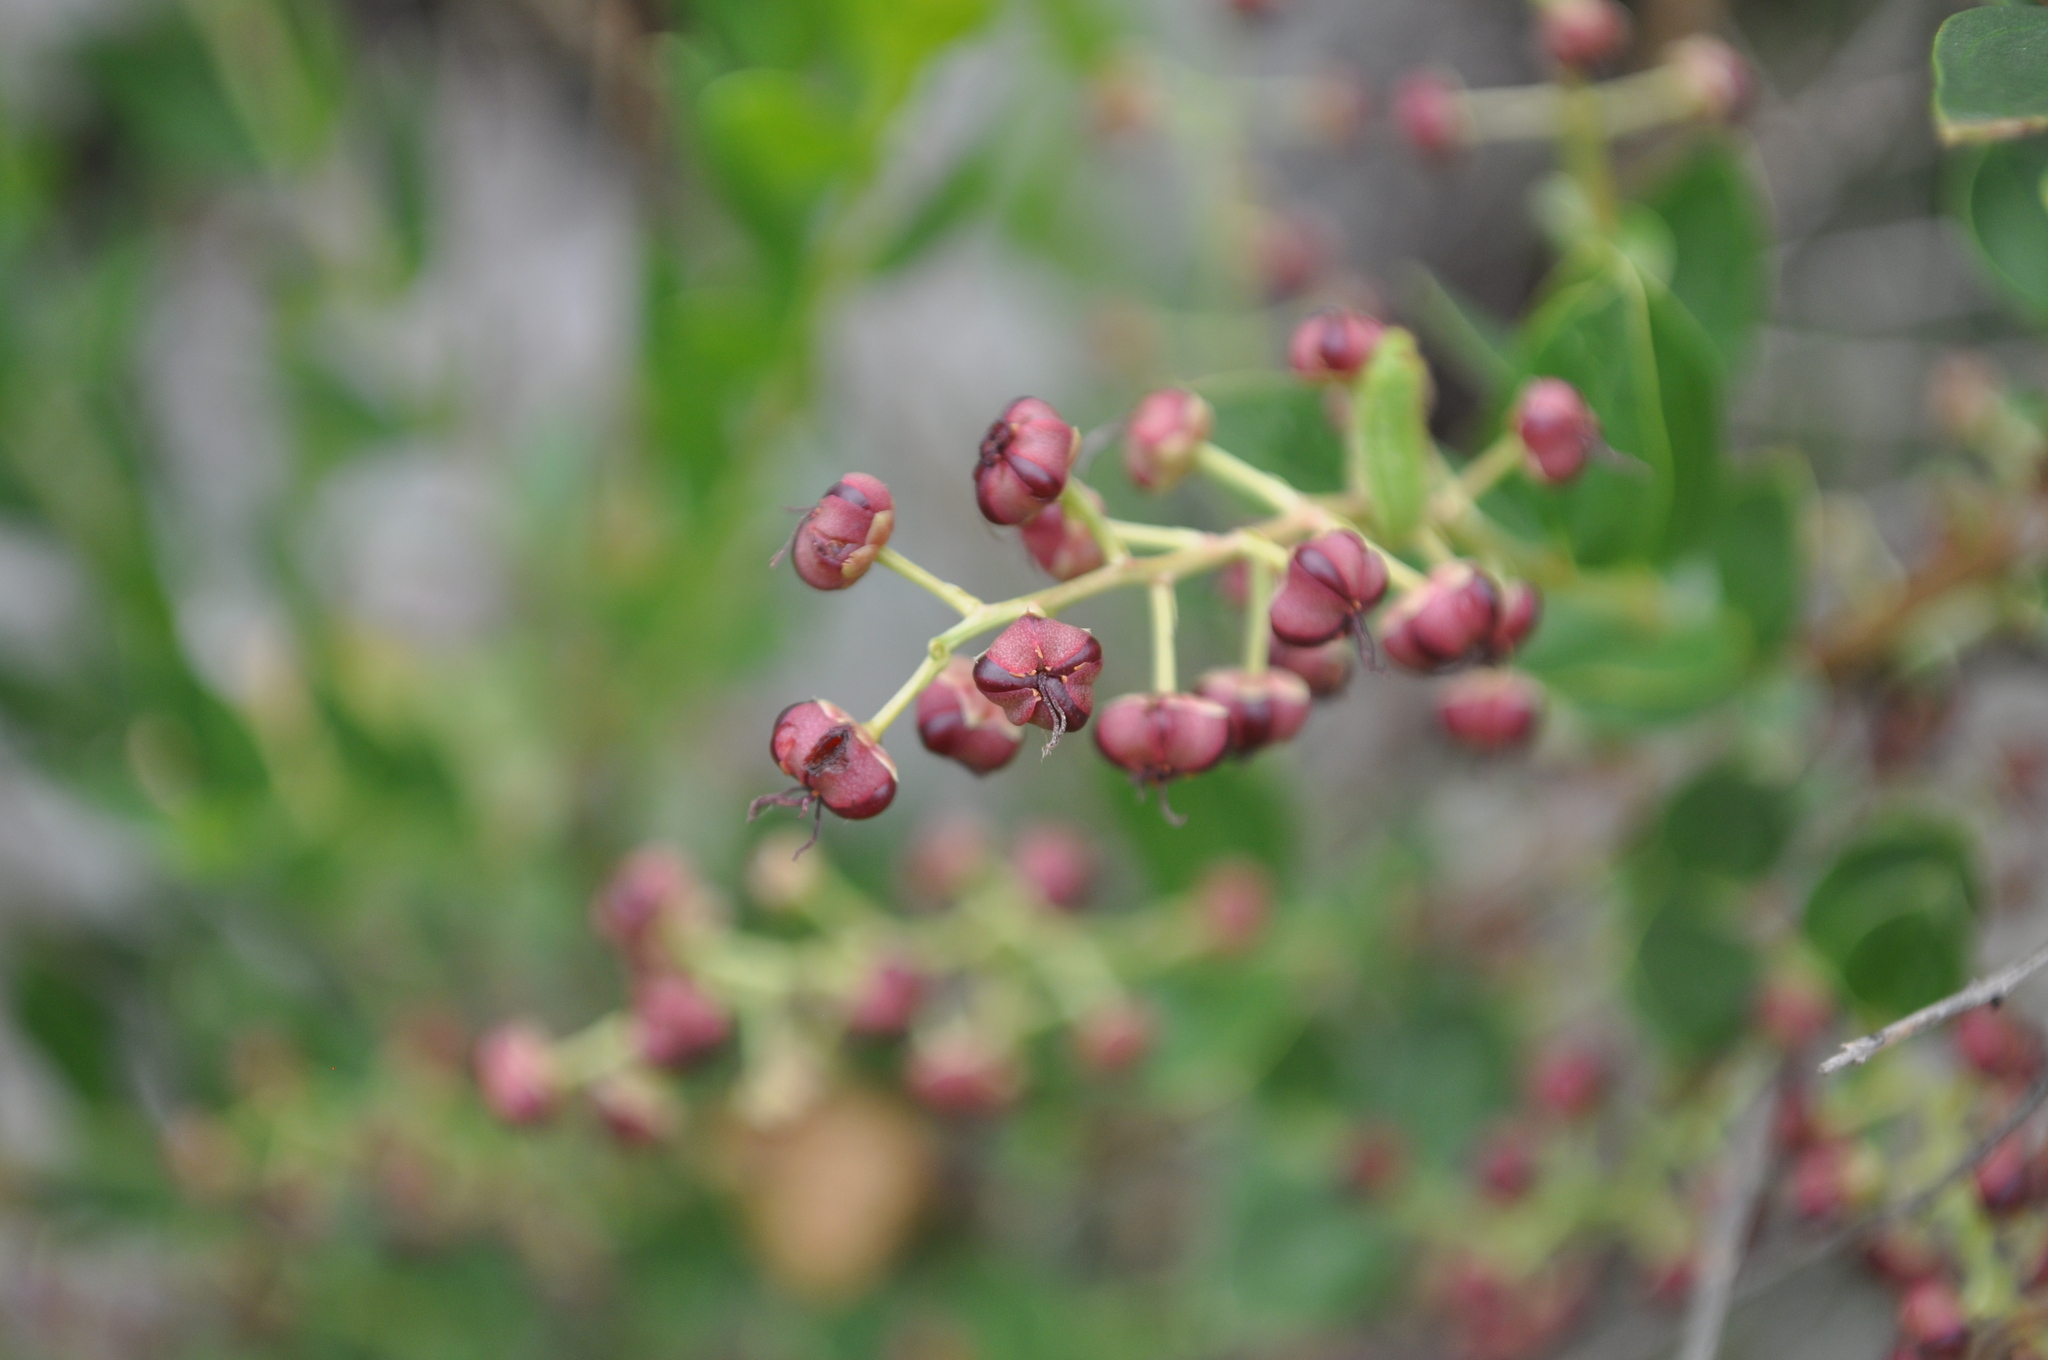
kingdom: Plantae
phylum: Tracheophyta
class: Magnoliopsida
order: Cucurbitales
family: Coriariaceae
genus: Coriaria
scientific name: Coriaria myrtifolia
